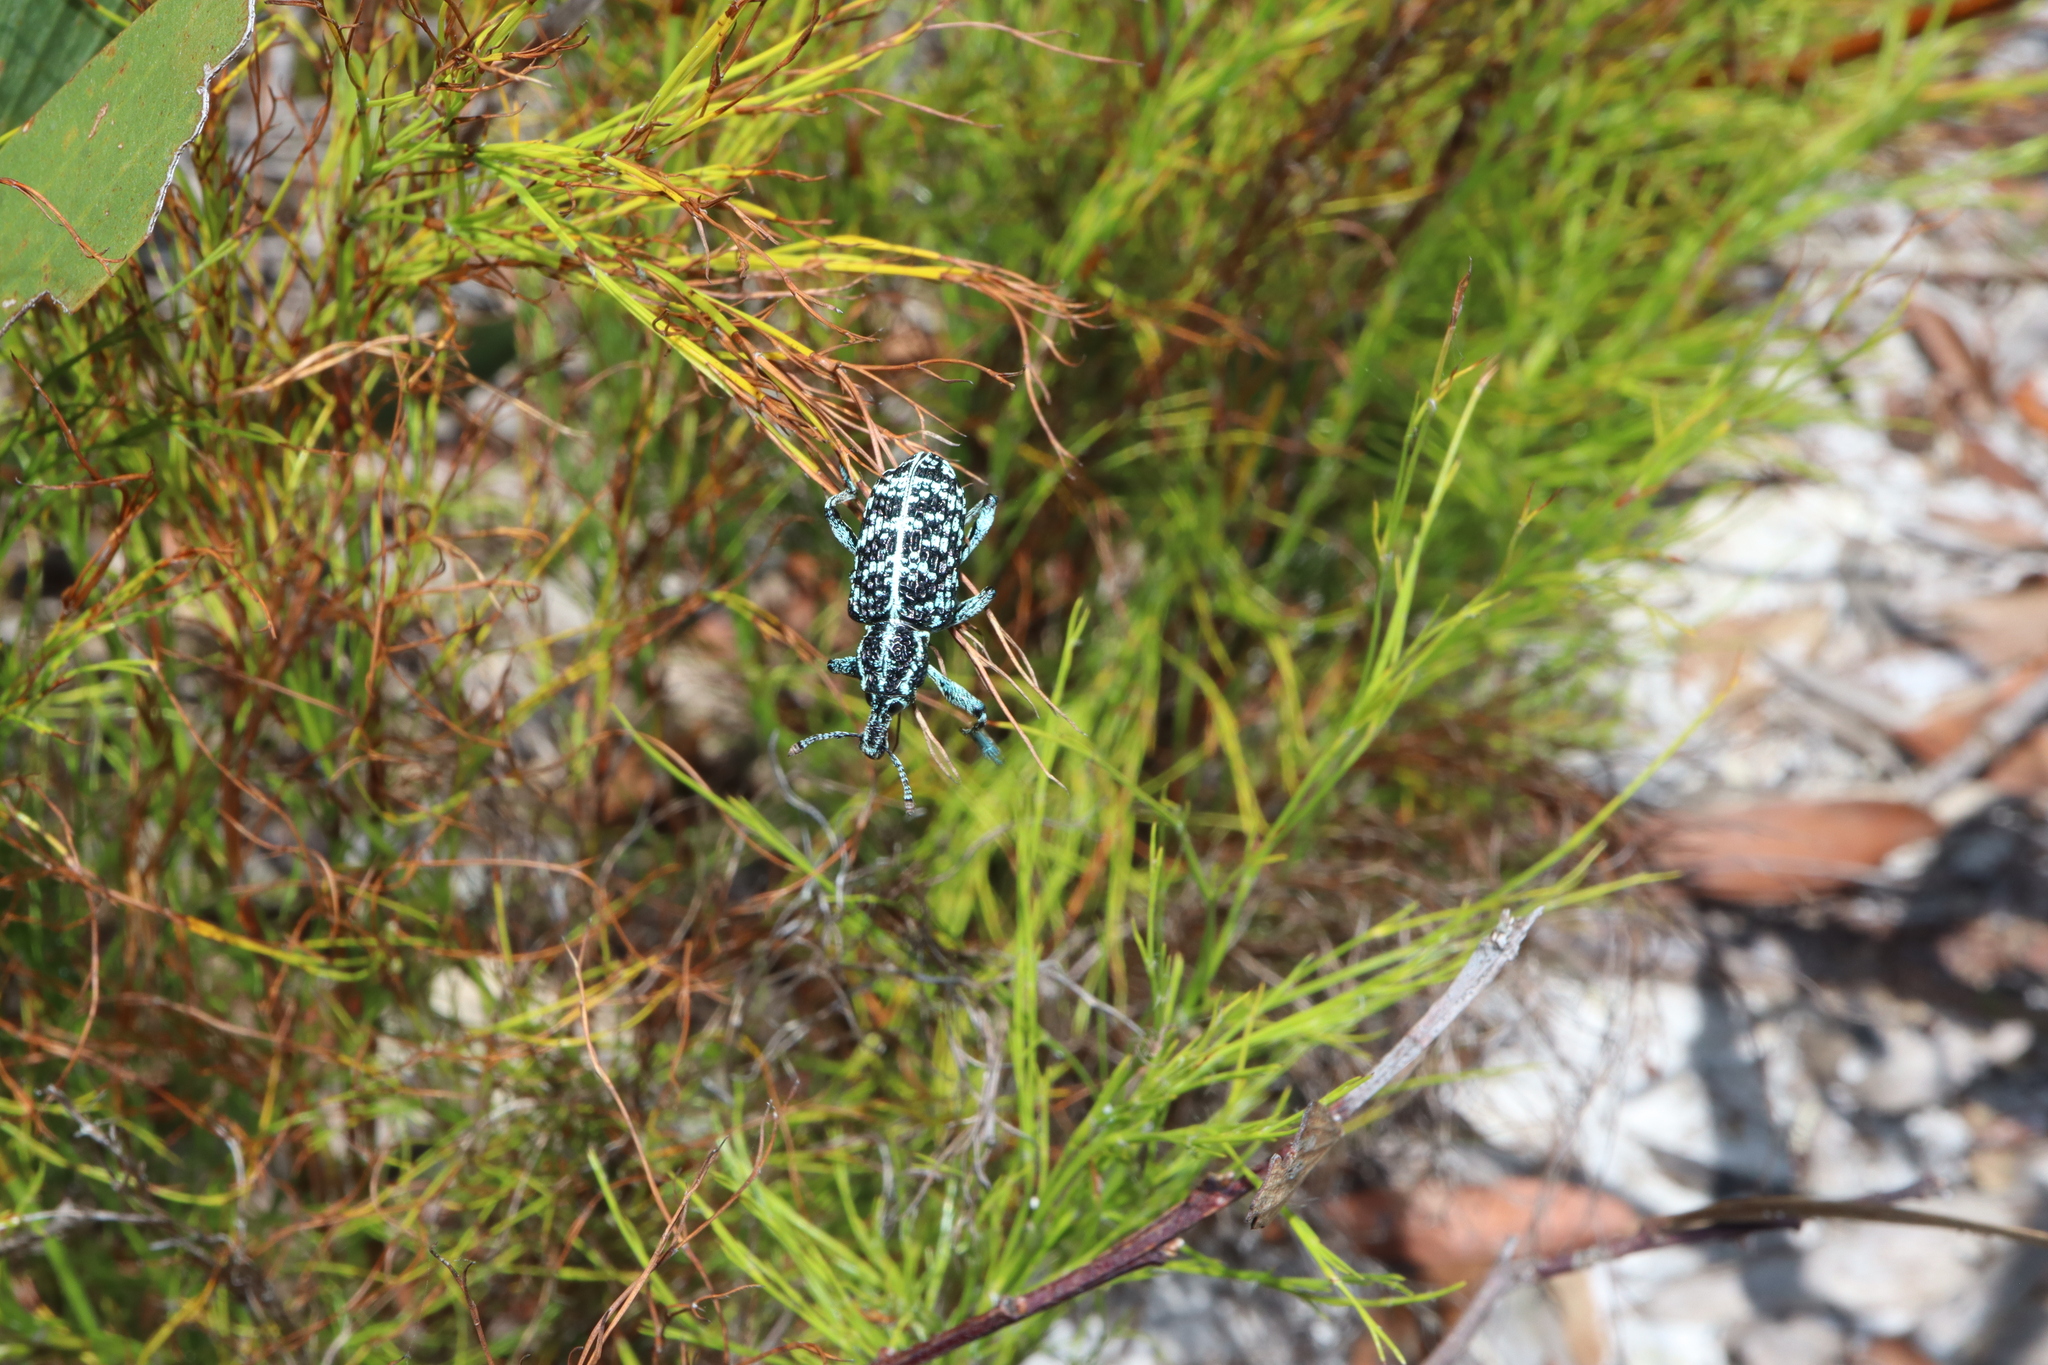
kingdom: Animalia
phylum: Arthropoda
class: Insecta
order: Coleoptera
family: Curculionidae
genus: Chrysolopus
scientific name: Chrysolopus spectabilis
